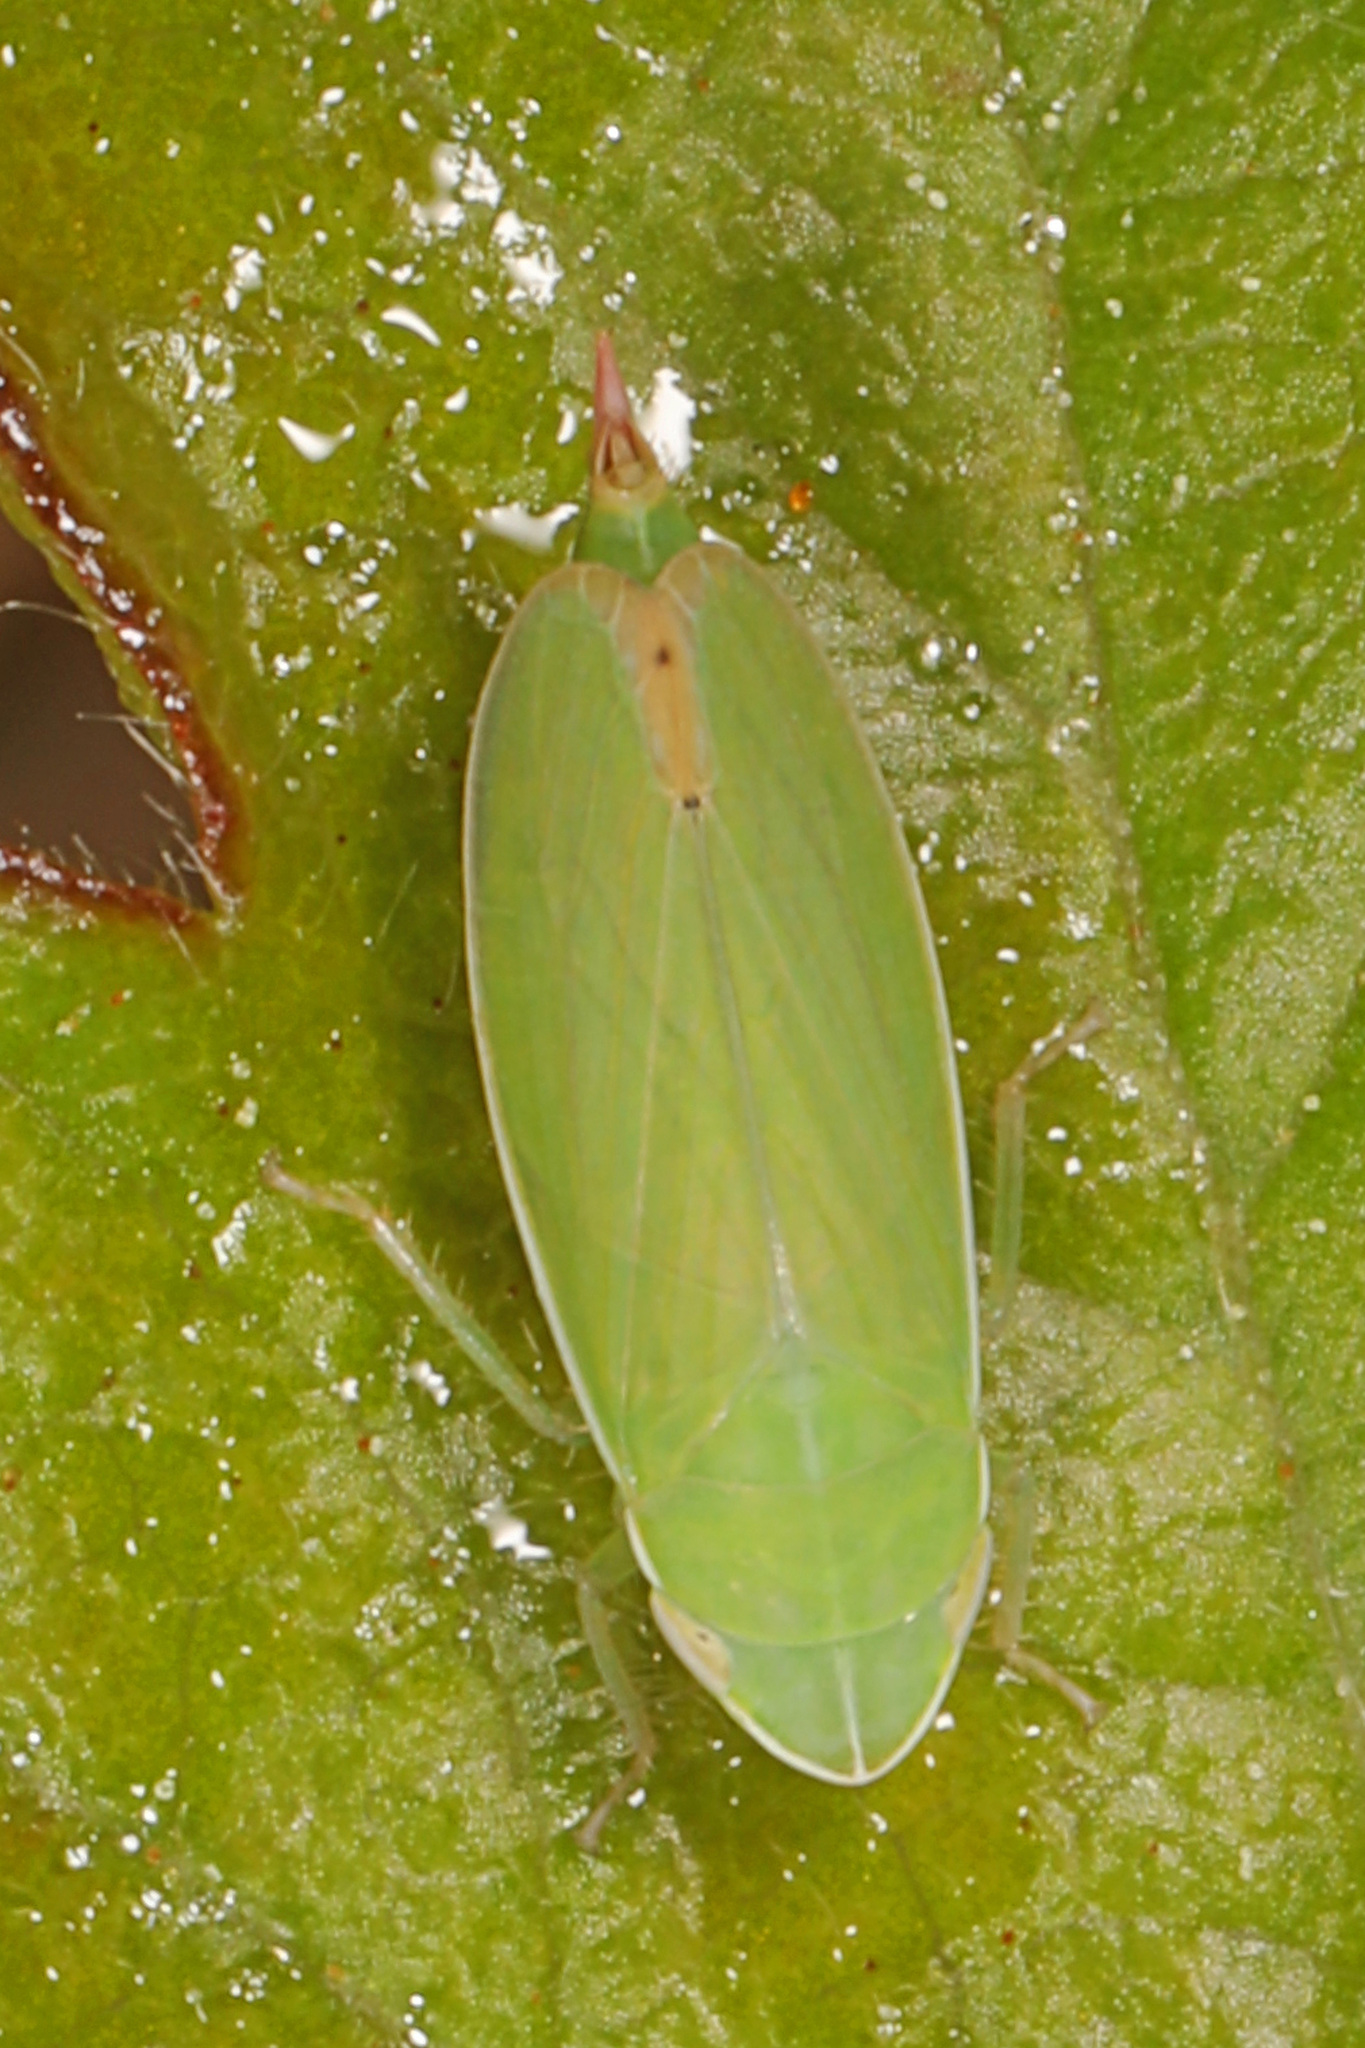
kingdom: Animalia
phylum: Arthropoda
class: Insecta
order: Hemiptera
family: Cicadellidae
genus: Memnonia
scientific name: Memnonia flavida
